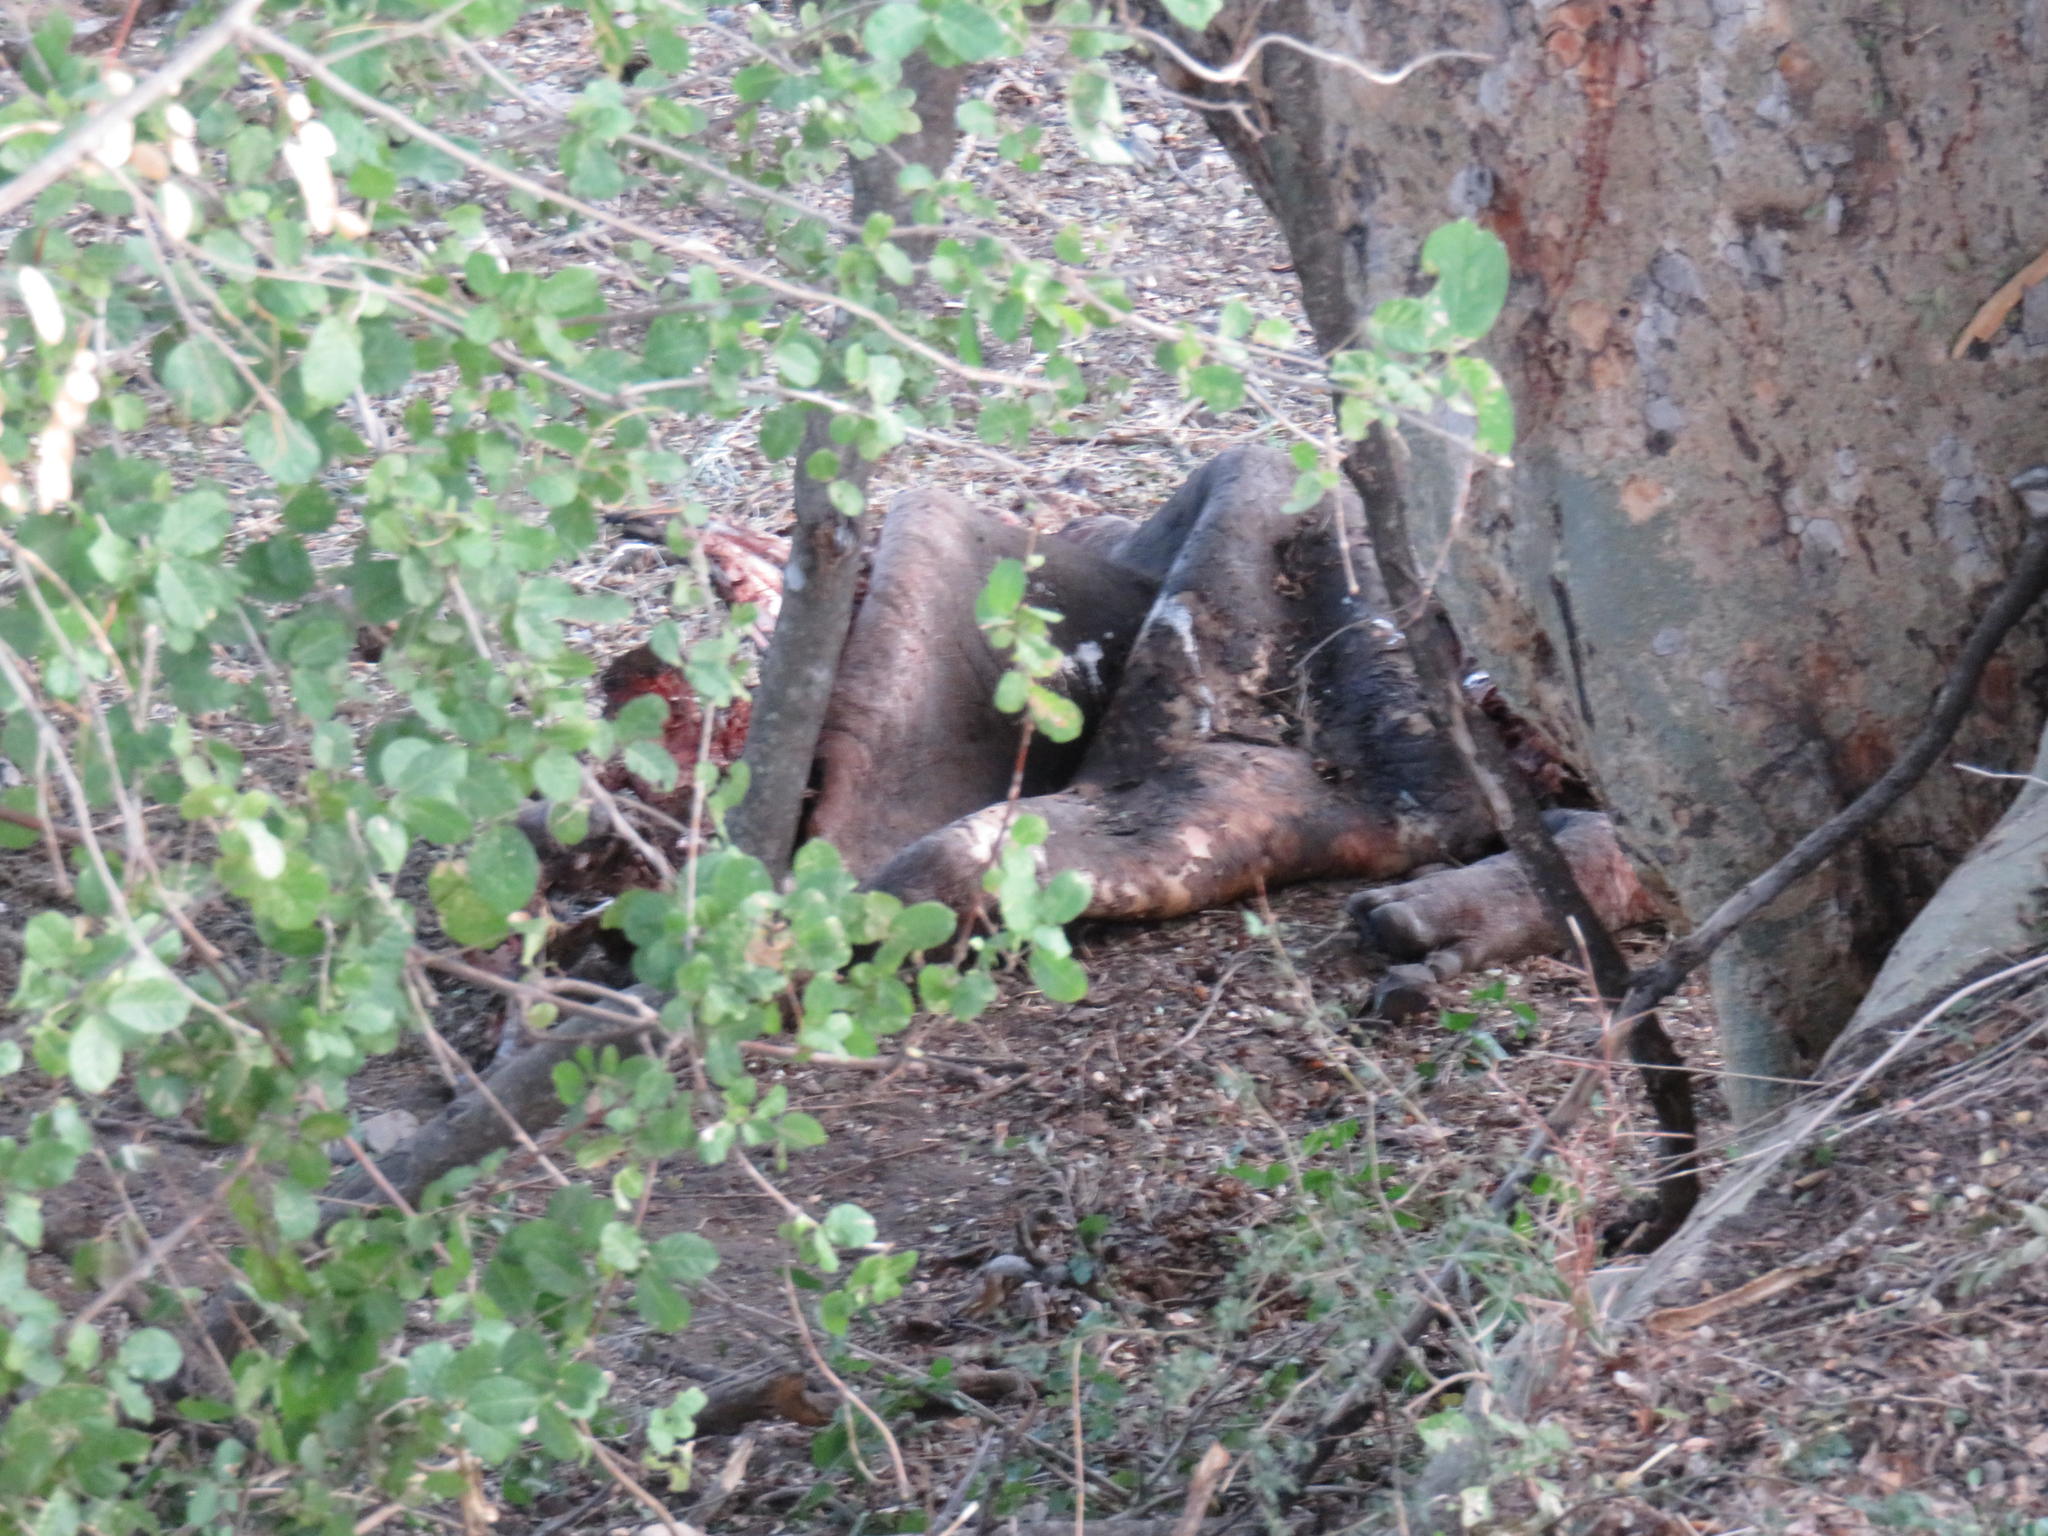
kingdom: Animalia
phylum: Chordata
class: Mammalia
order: Artiodactyla
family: Hippopotamidae
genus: Hippopotamus
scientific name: Hippopotamus amphibius
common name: Common hippopotamus
